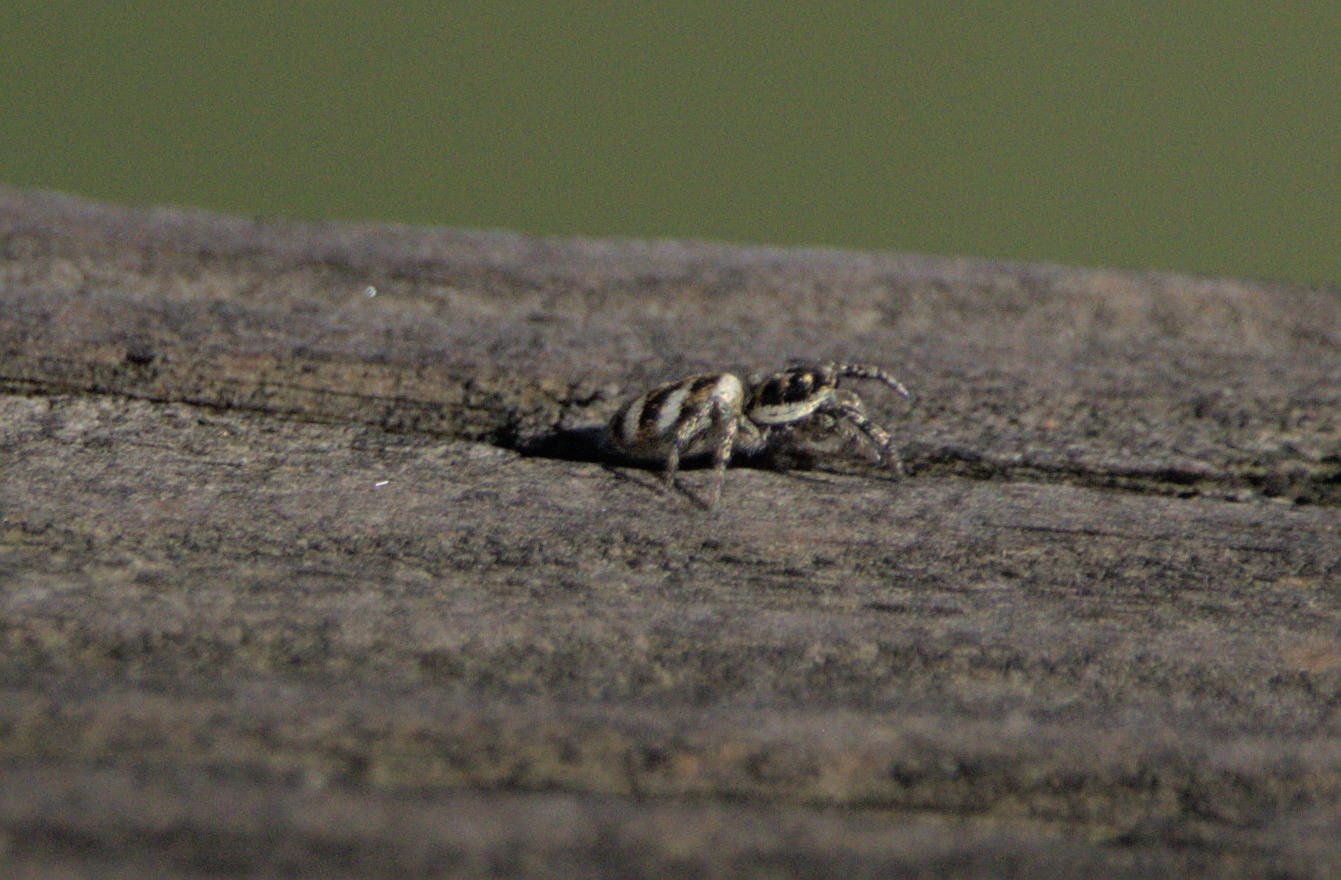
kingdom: Animalia
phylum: Arthropoda
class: Arachnida
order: Araneae
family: Salticidae
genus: Salticus
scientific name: Salticus scenicus
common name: Zebra jumper
